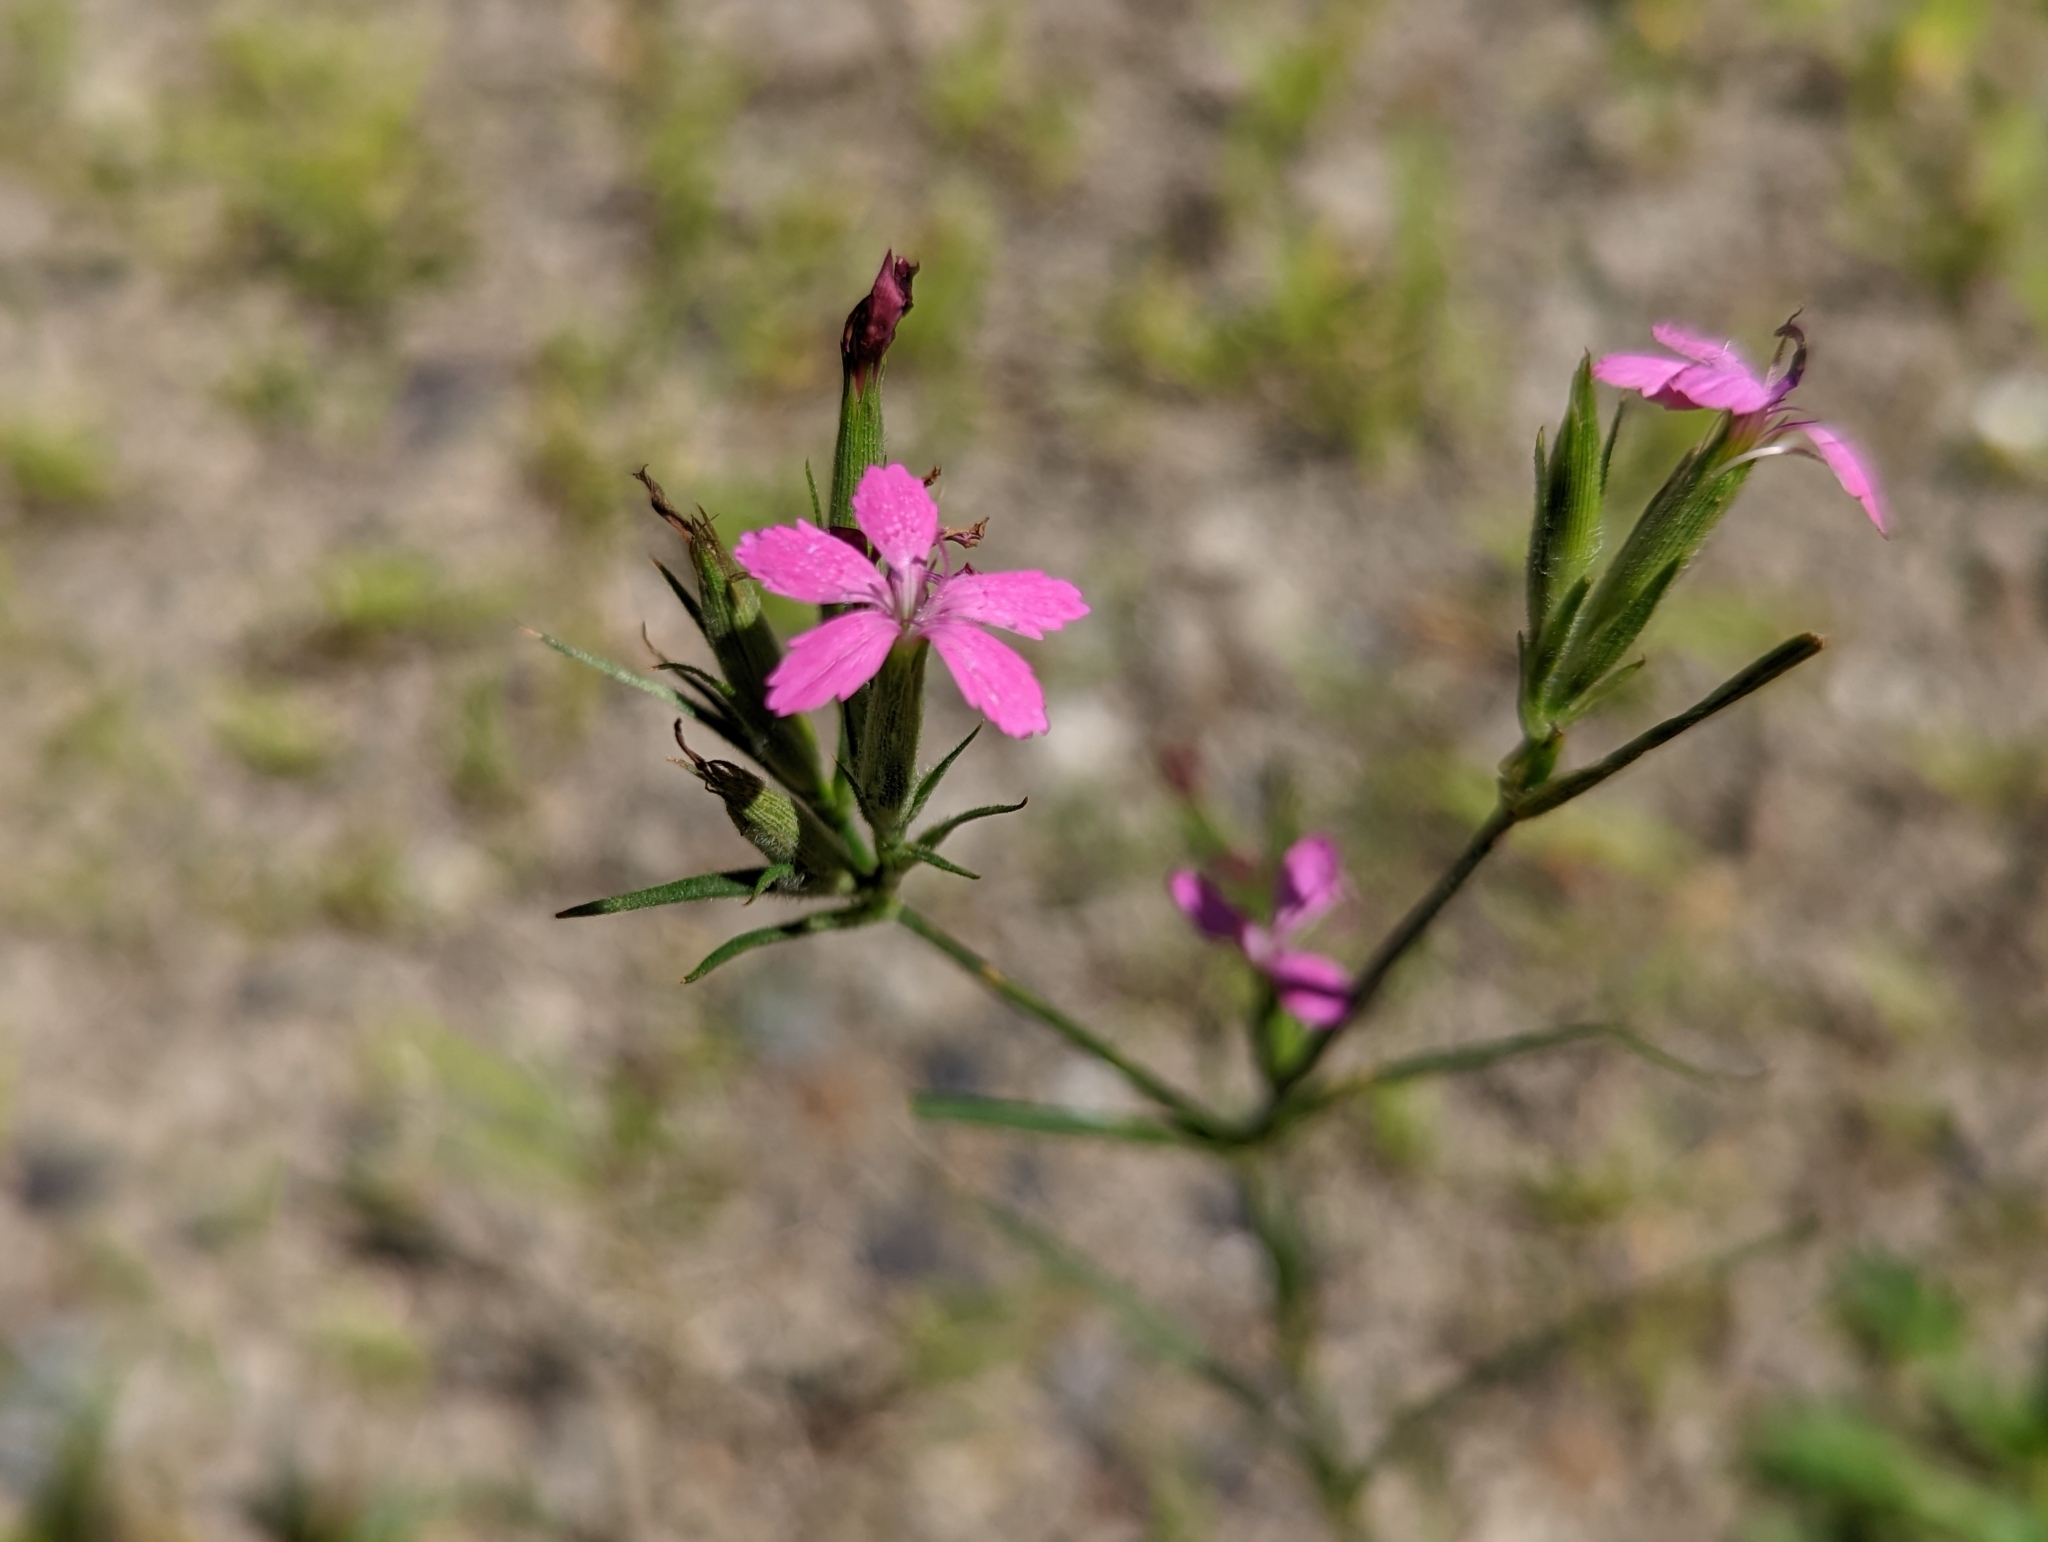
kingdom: Plantae
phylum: Tracheophyta
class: Magnoliopsida
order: Caryophyllales
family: Caryophyllaceae
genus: Dianthus
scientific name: Dianthus armeria
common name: Deptford pink
